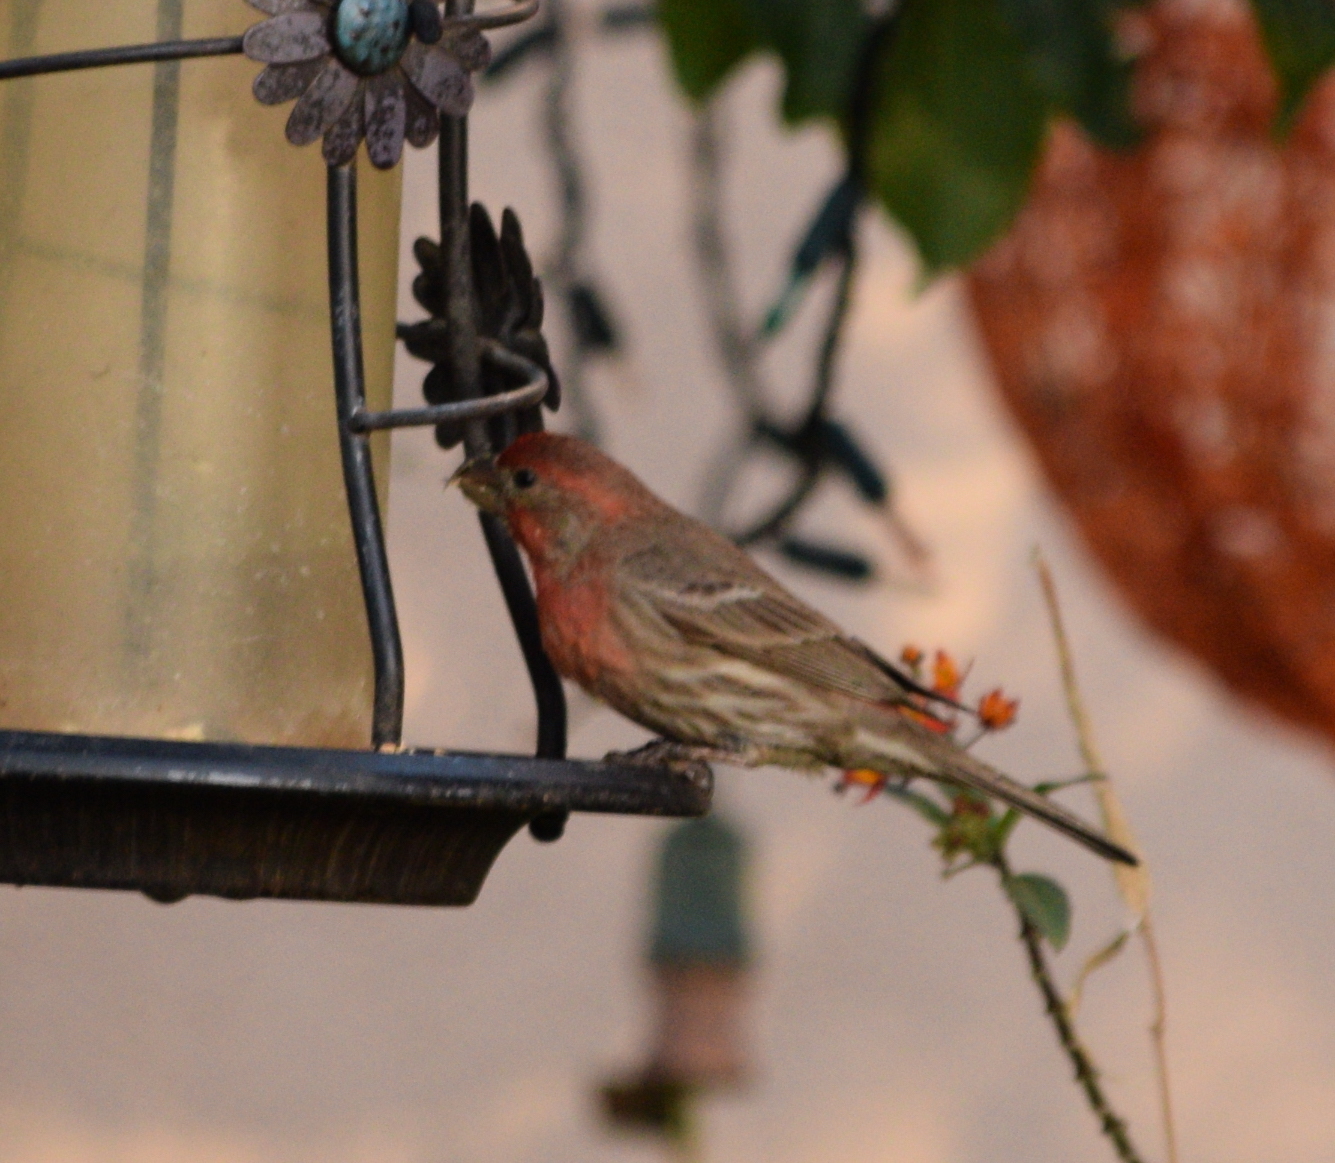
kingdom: Animalia
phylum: Chordata
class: Aves
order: Passeriformes
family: Fringillidae
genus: Haemorhous
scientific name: Haemorhous mexicanus
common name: House finch
